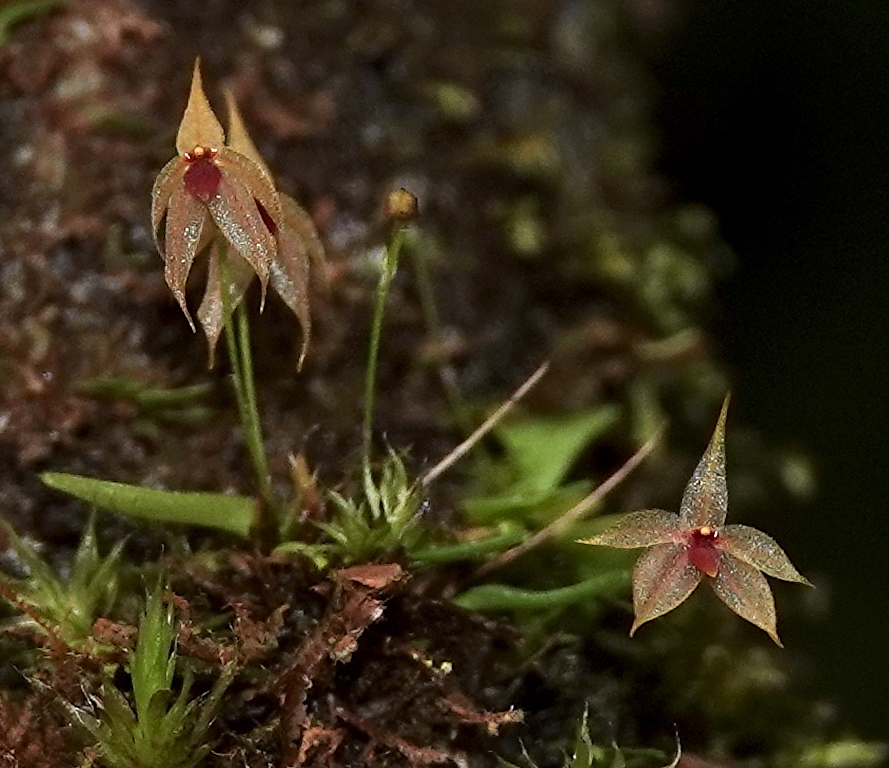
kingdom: Plantae
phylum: Tracheophyta
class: Liliopsida
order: Asparagales
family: Orchidaceae
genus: Platystele
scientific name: Platystele caudatisepala
